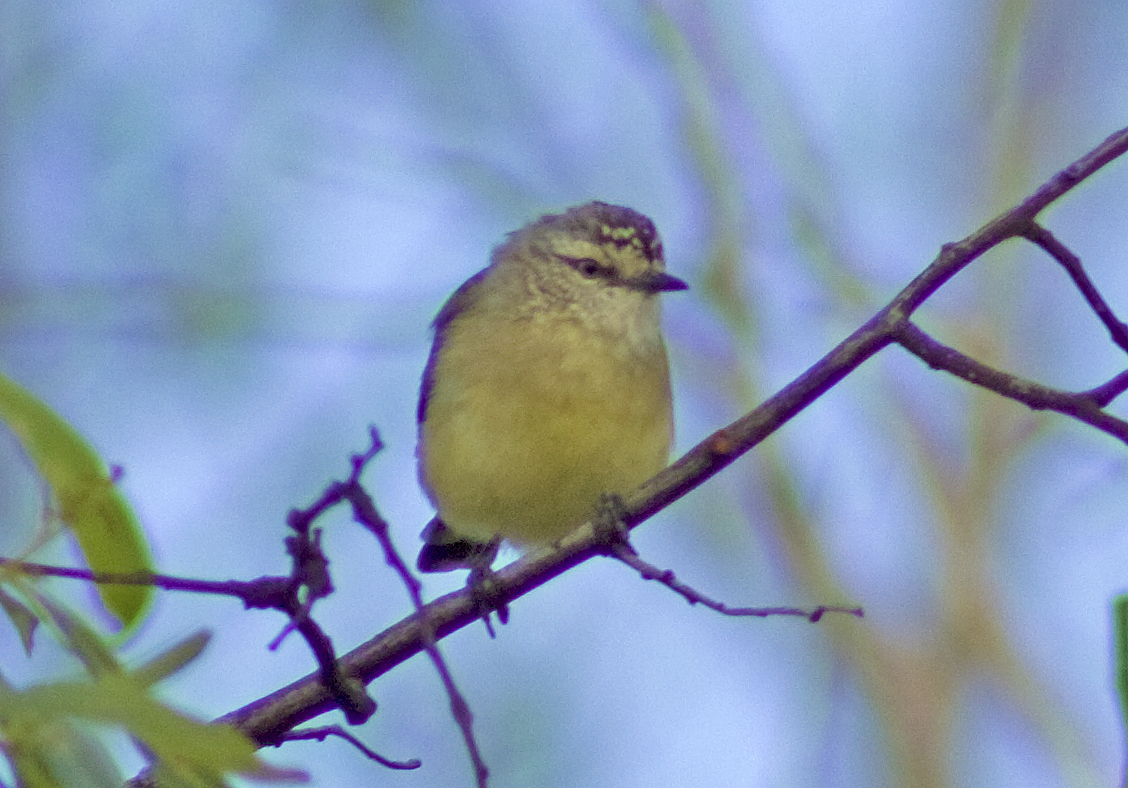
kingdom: Animalia
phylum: Chordata
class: Aves
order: Passeriformes
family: Acanthizidae
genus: Acanthiza
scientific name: Acanthiza chrysorrhoa
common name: Yellow-rumped thornbill
